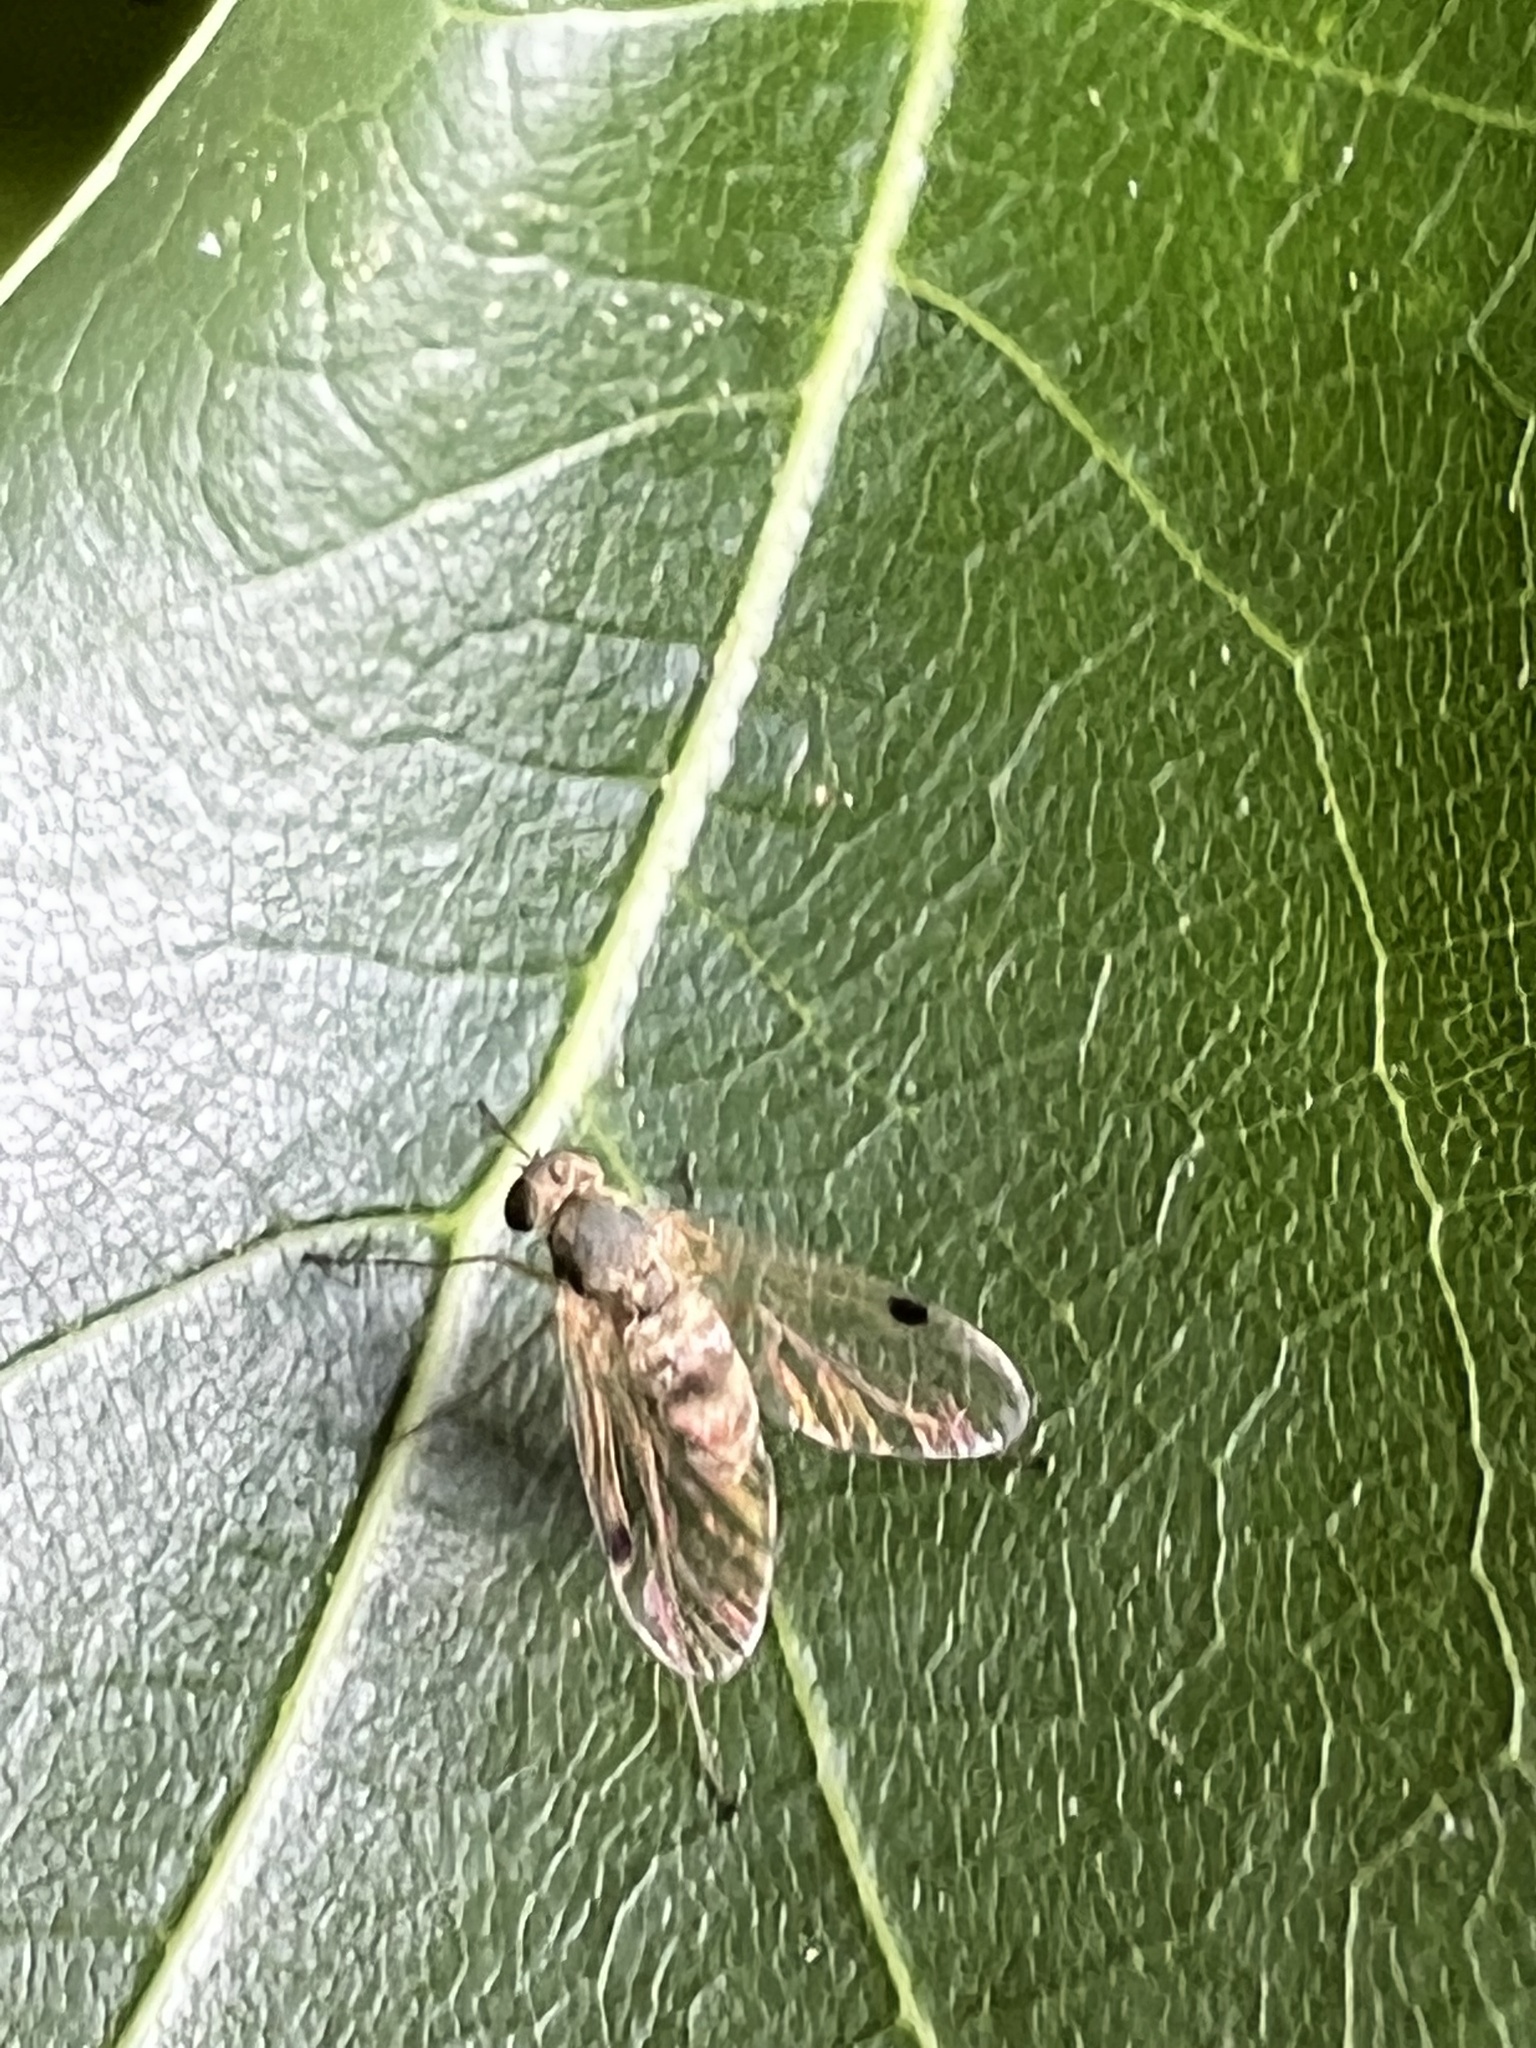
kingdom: Animalia
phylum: Arthropoda
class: Insecta
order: Diptera
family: Rhagionidae
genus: Chrysopilus
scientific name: Chrysopilus modestus
